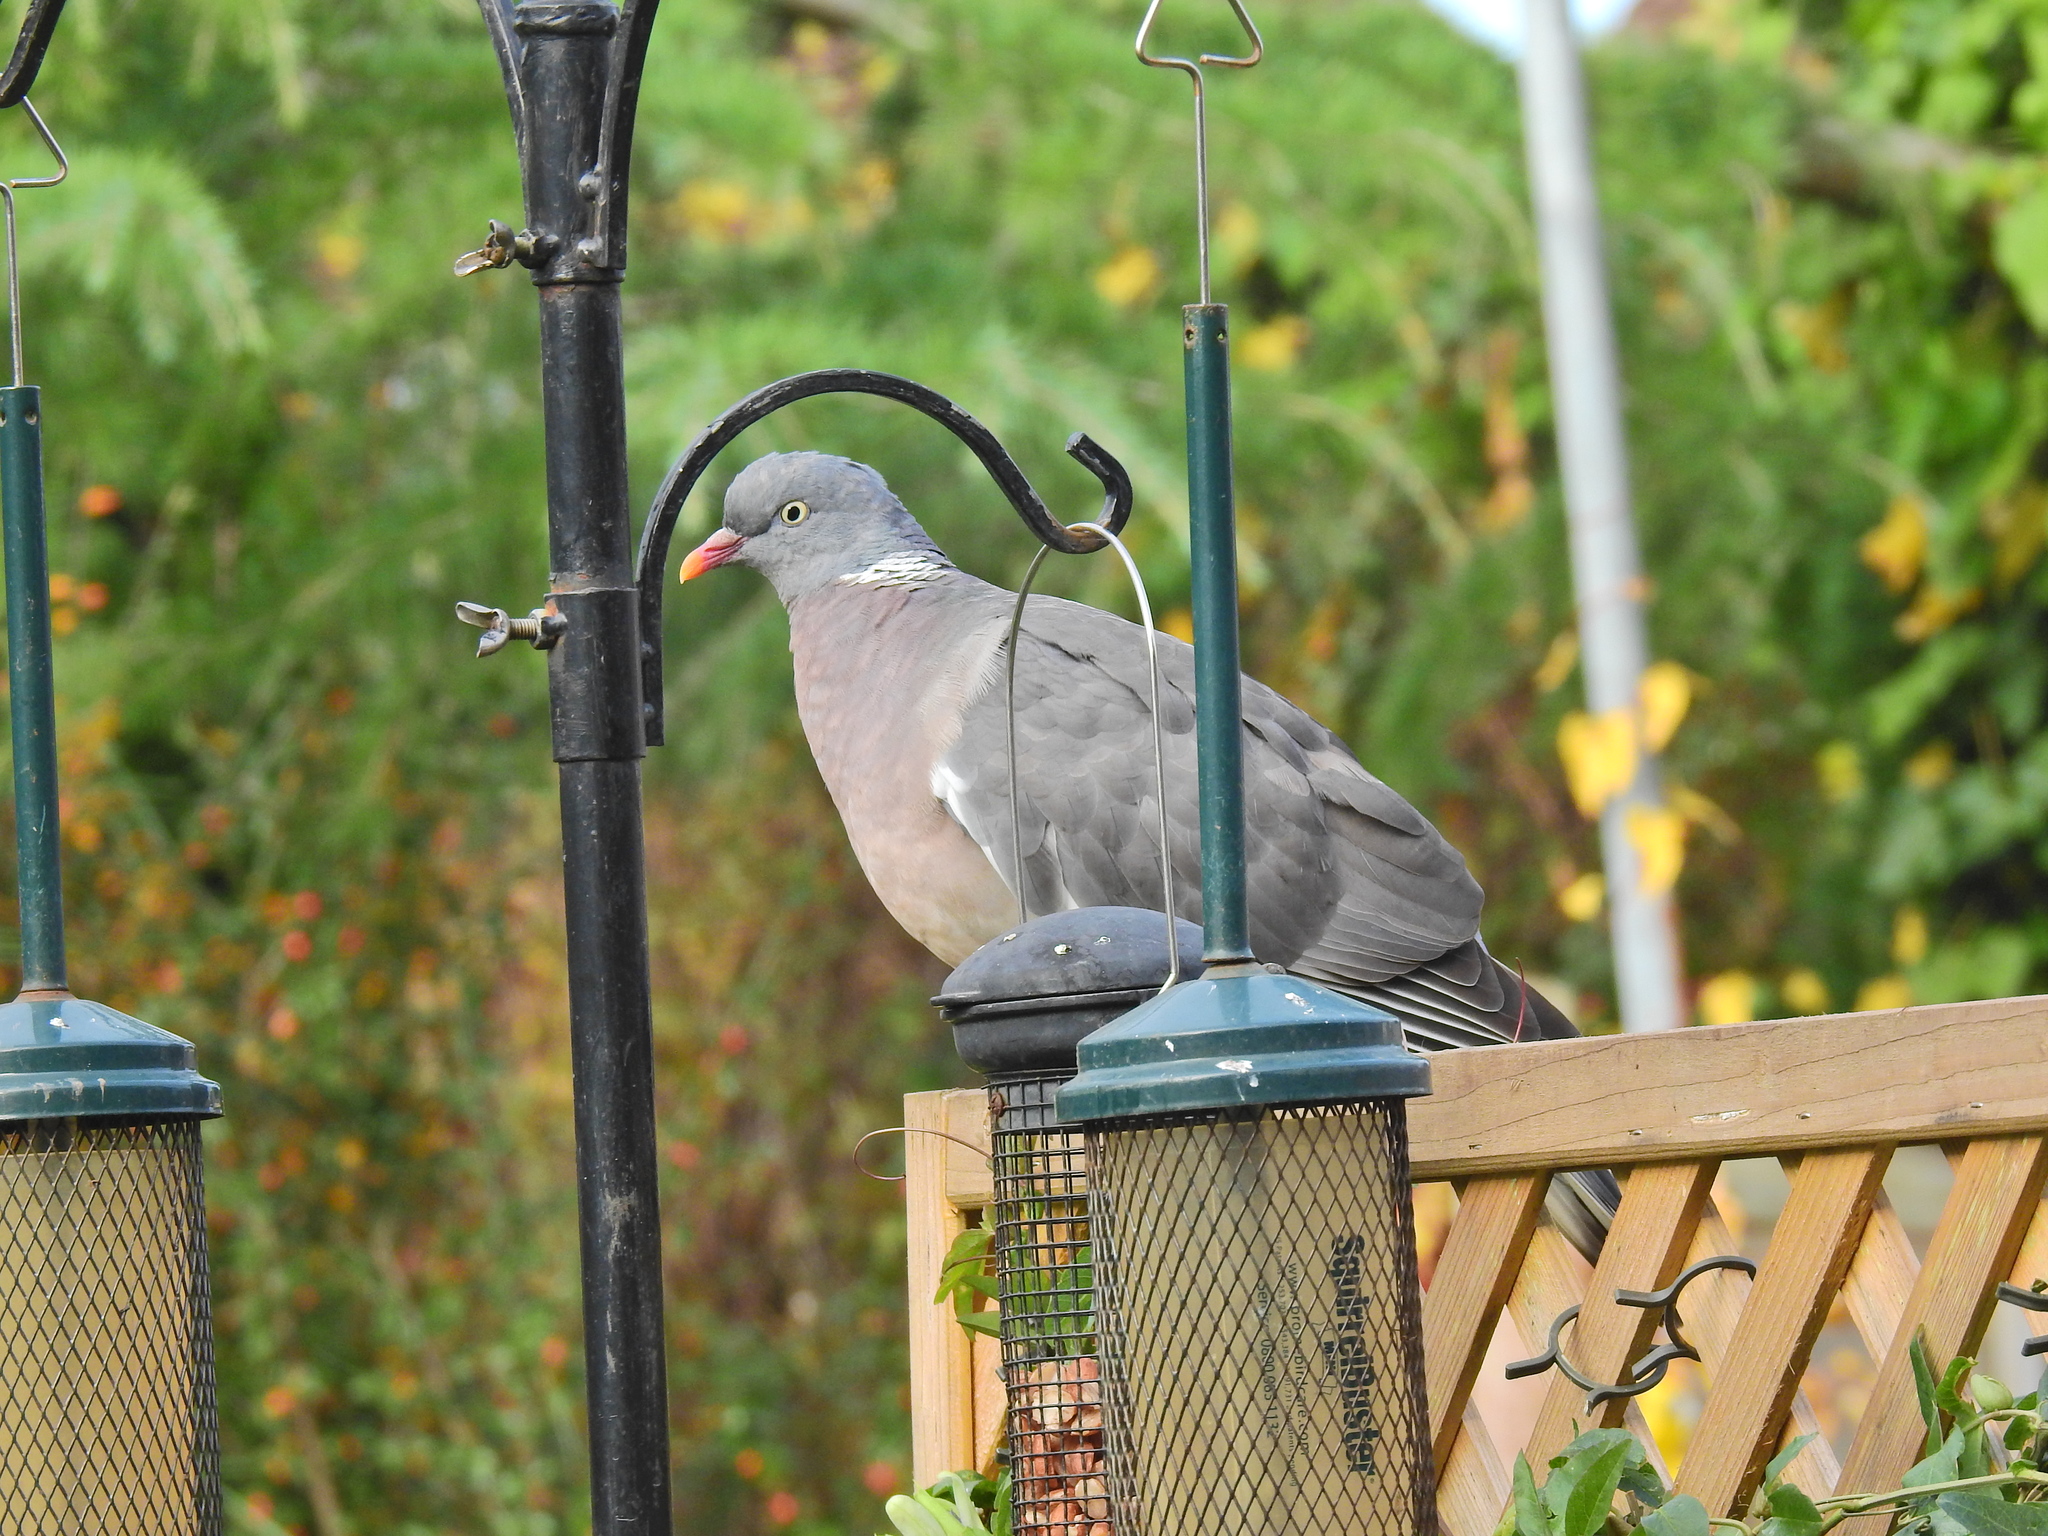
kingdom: Animalia
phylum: Chordata
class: Aves
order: Columbiformes
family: Columbidae
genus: Columba
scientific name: Columba palumbus
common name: Common wood pigeon
